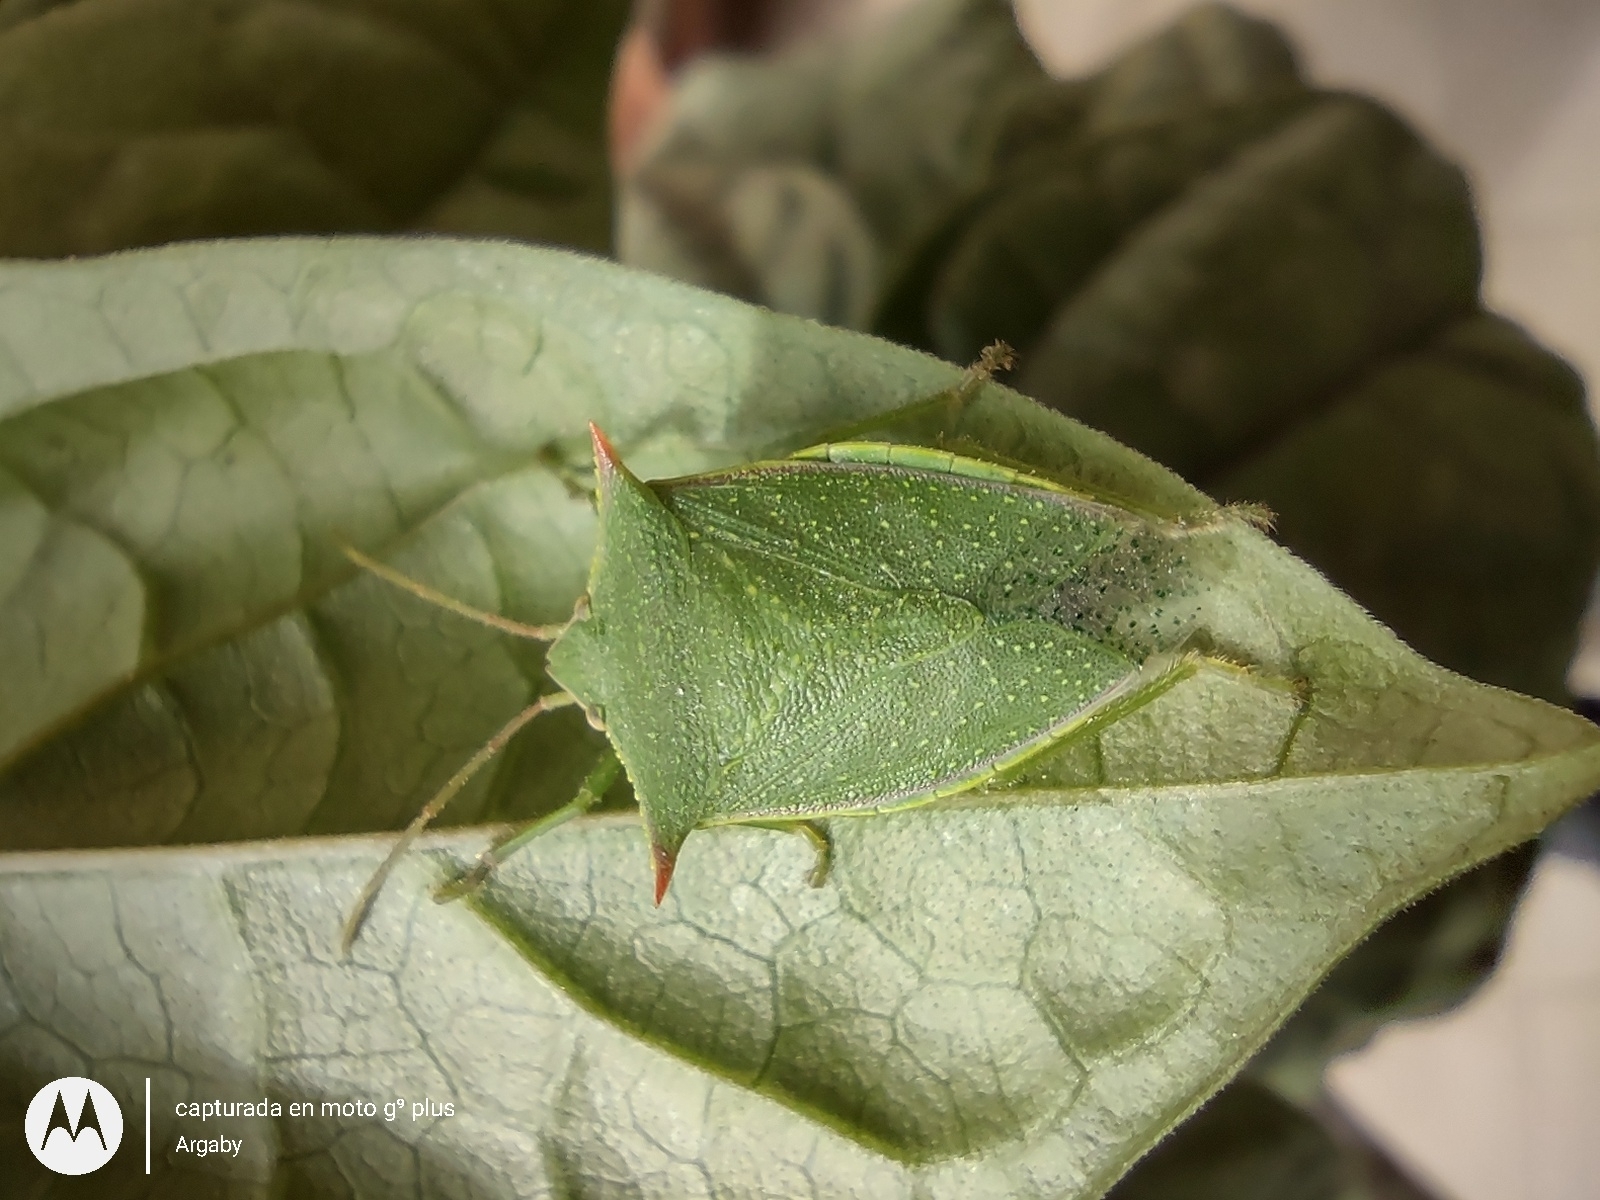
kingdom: Animalia
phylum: Arthropoda
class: Insecta
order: Hemiptera
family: Pentatomidae
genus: Loxa
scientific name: Loxa deducta
